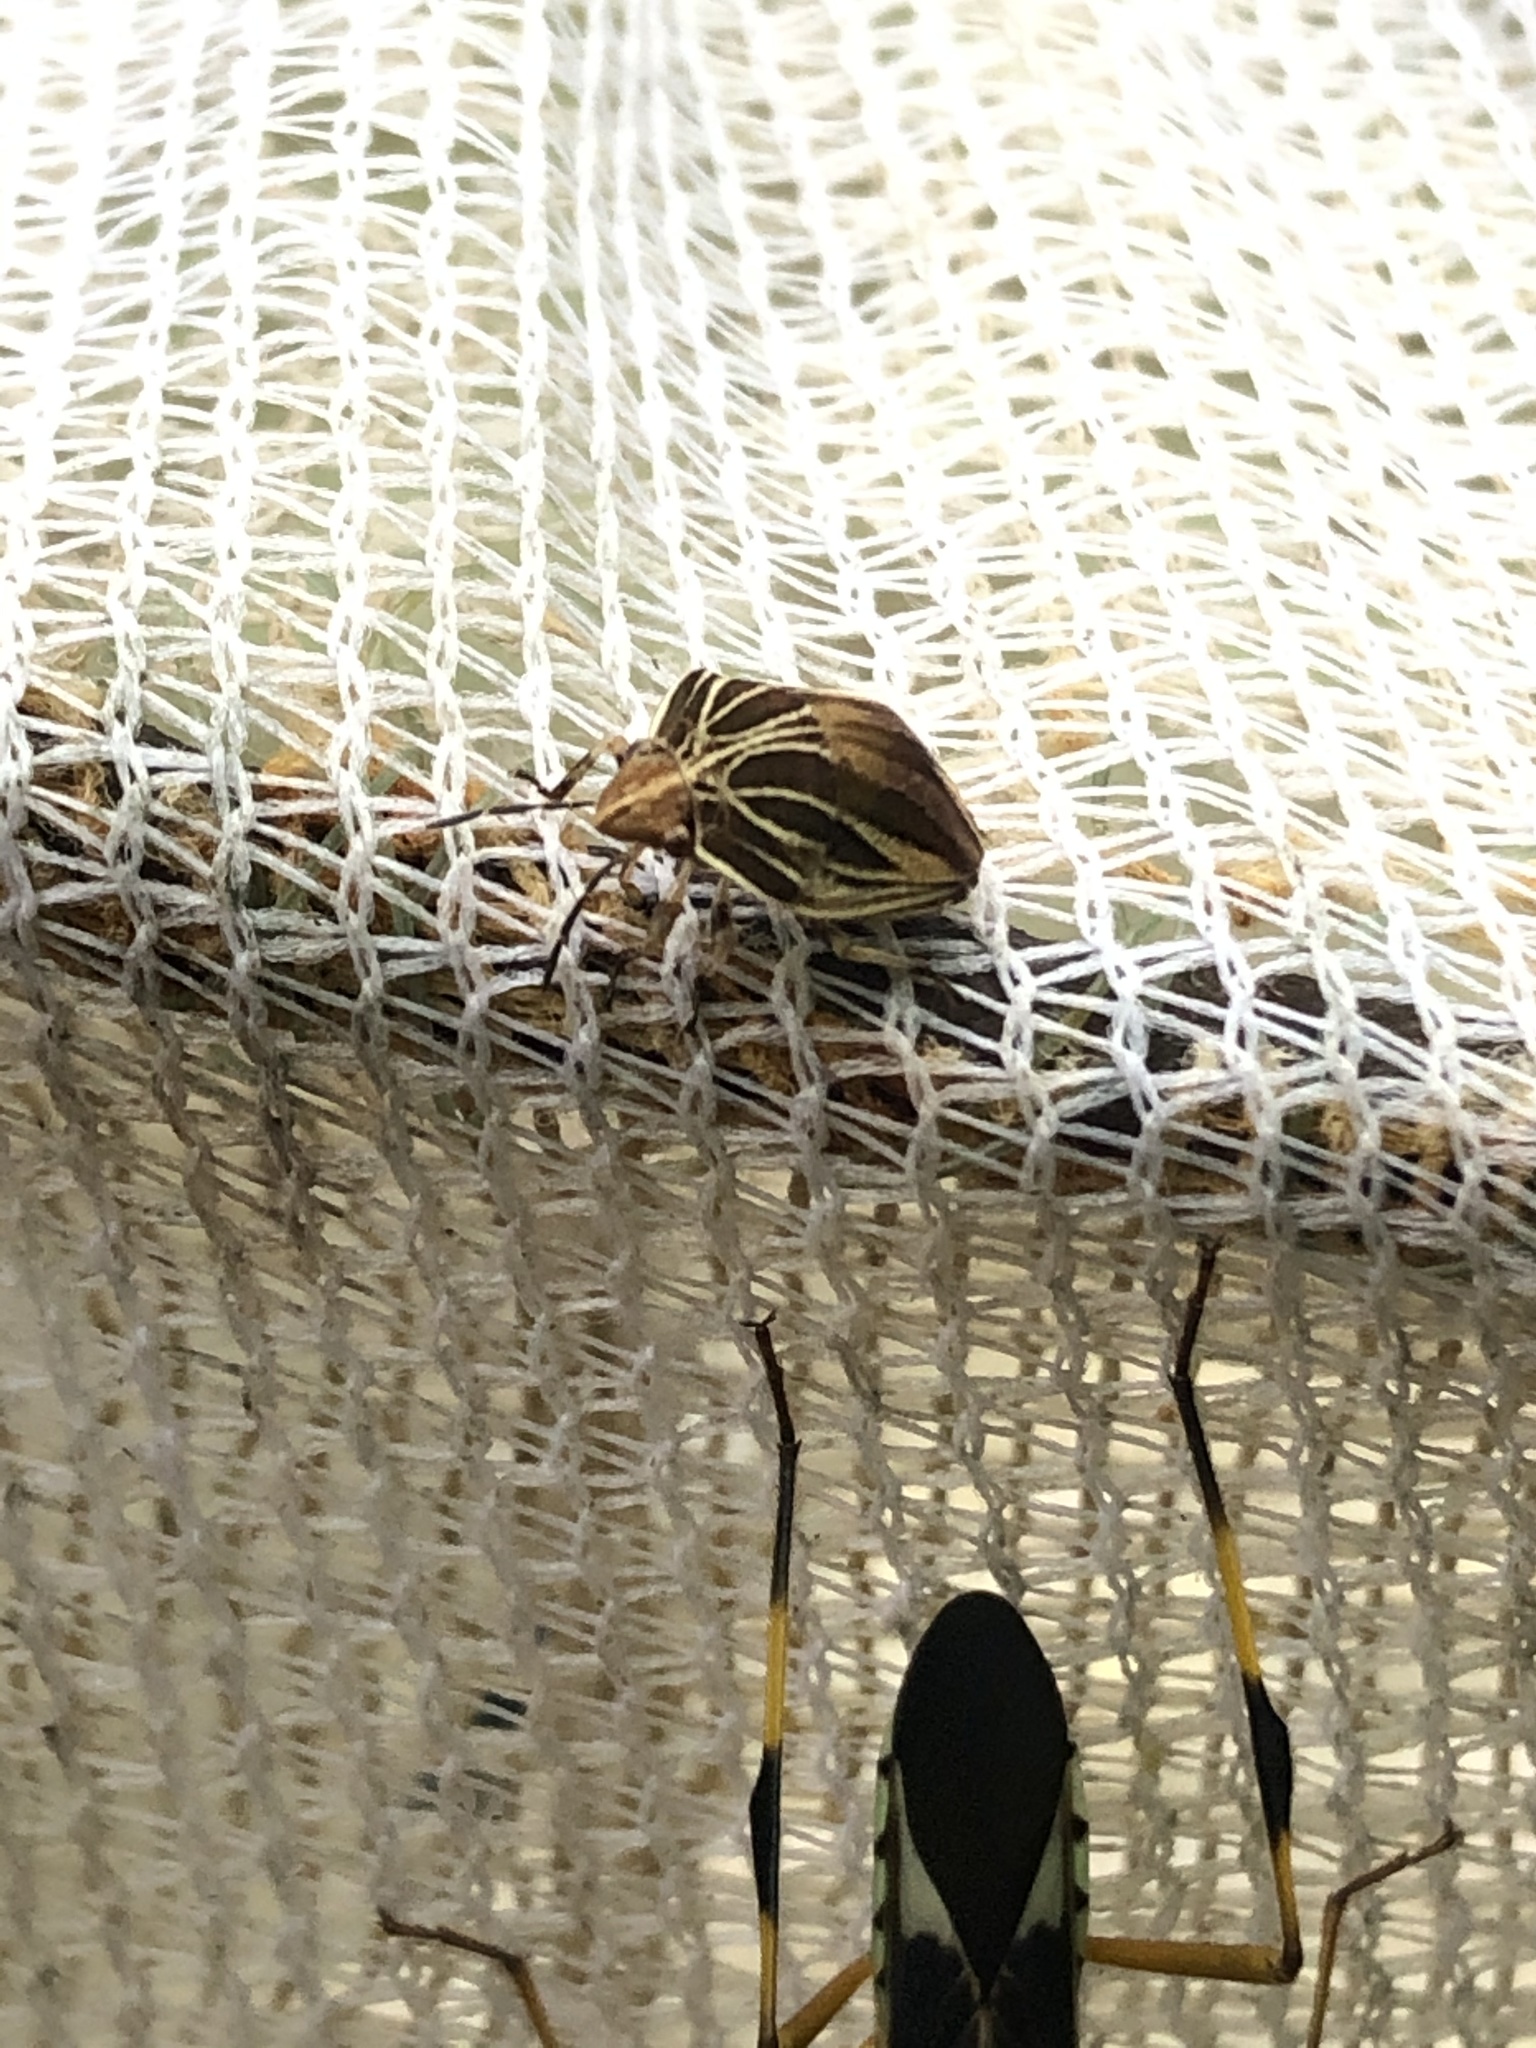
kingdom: Animalia
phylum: Arthropoda
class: Insecta
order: Hemiptera
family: Scutelleridae
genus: Symphylus
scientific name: Symphylus ramivitta
